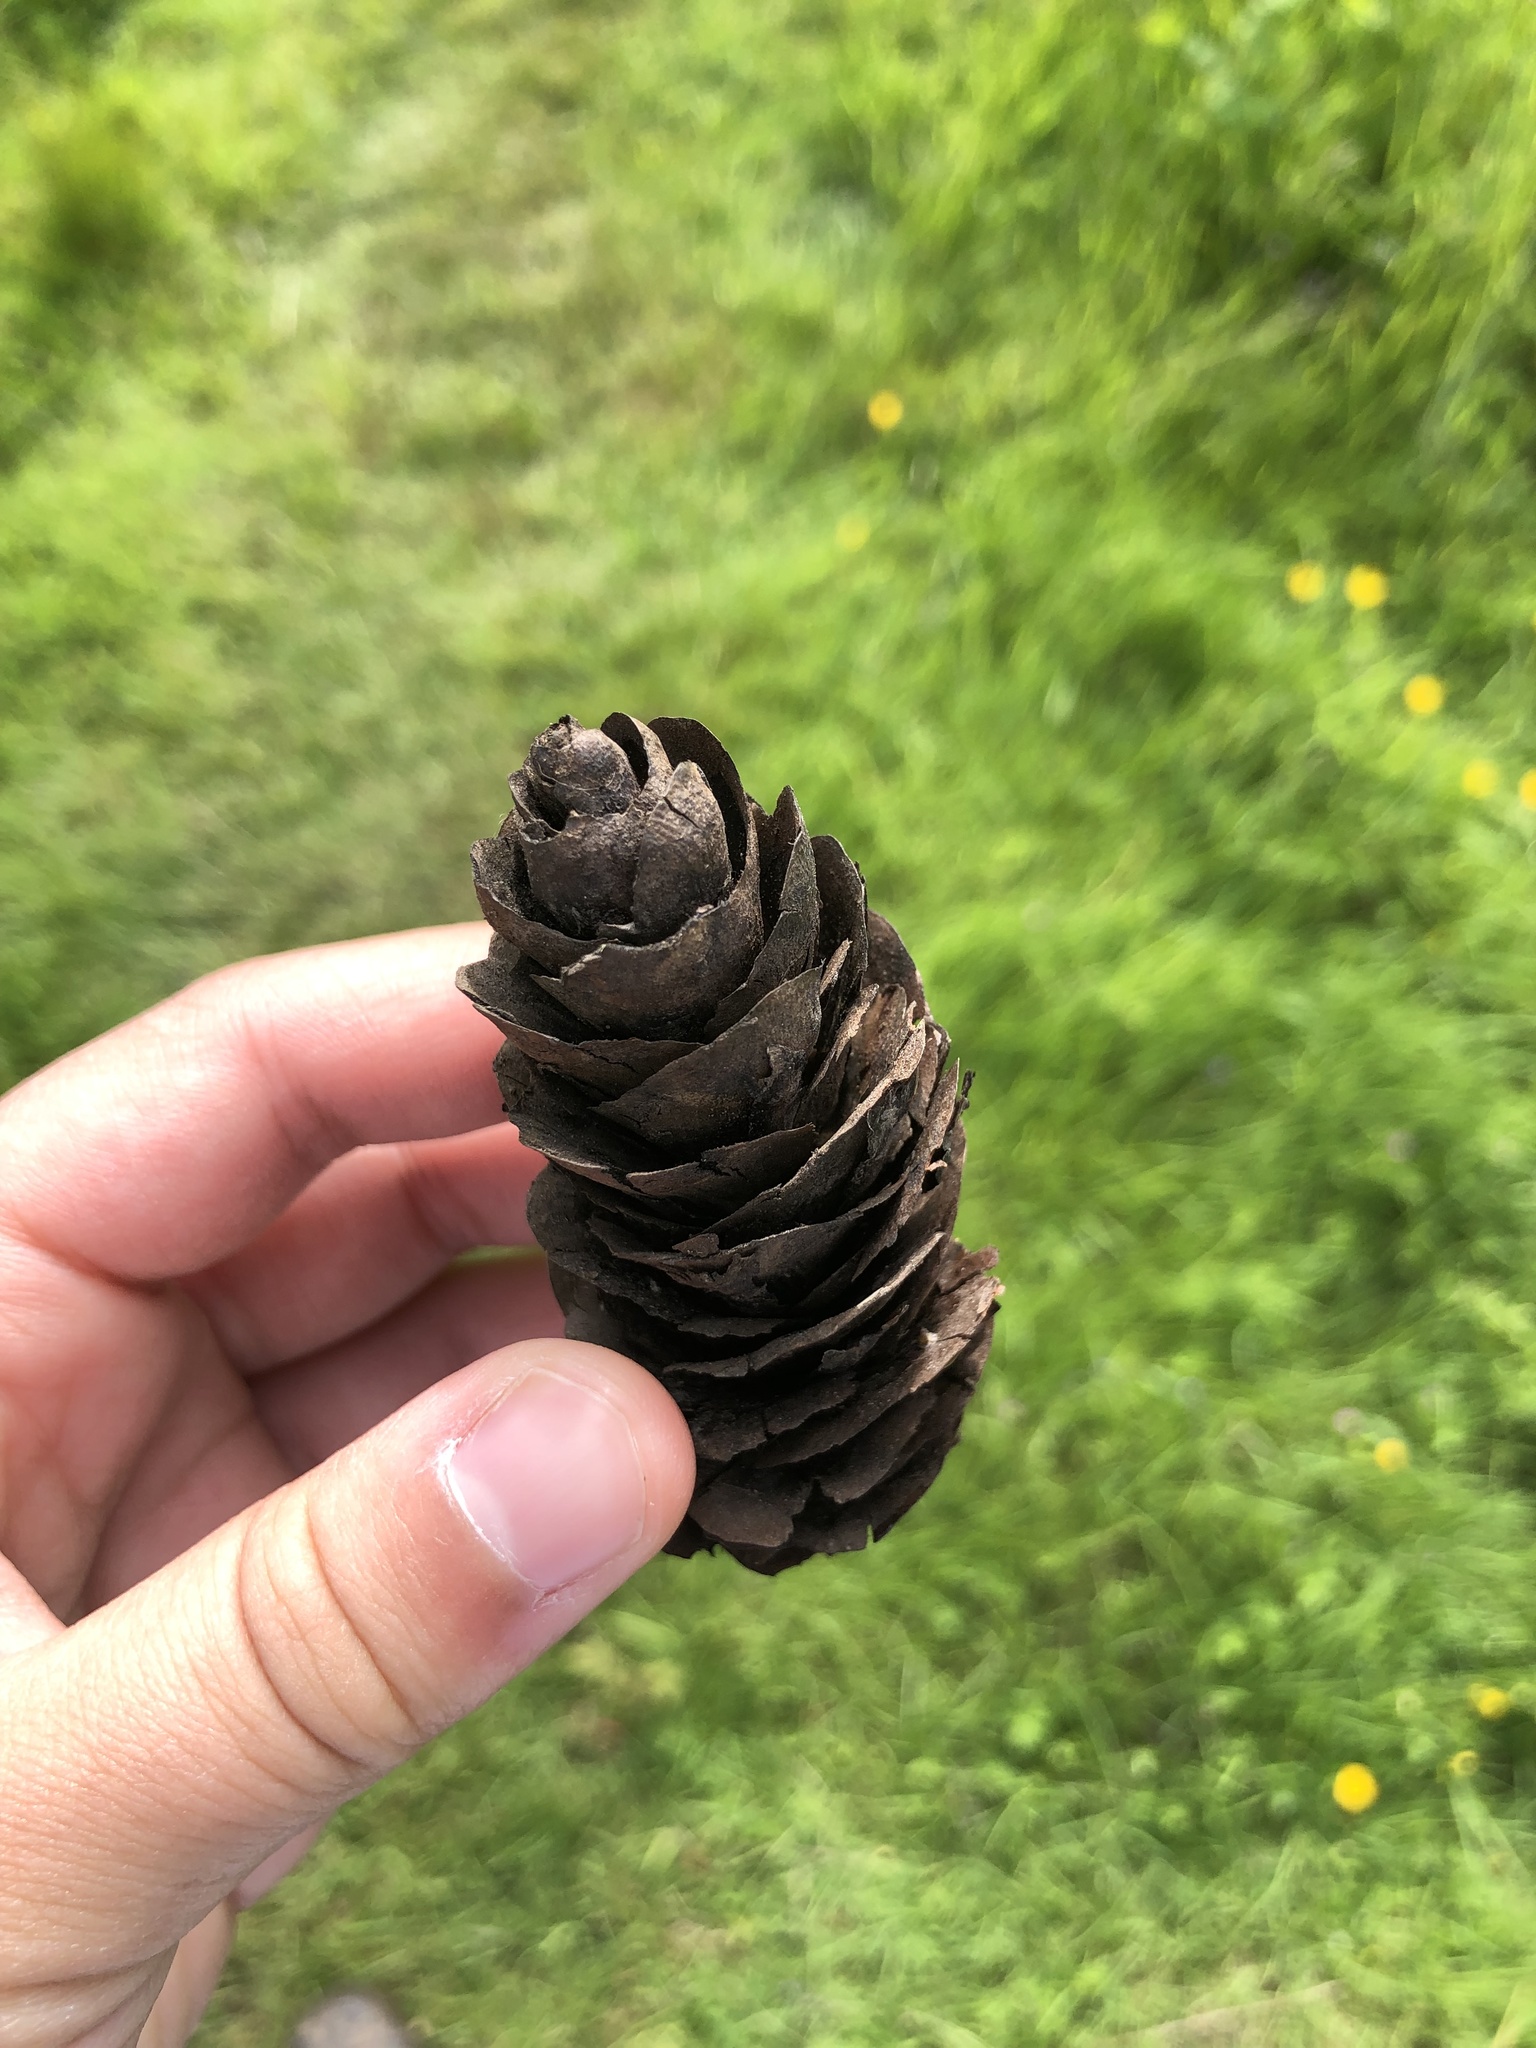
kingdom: Plantae
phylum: Tracheophyta
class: Pinopsida
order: Pinales
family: Pinaceae
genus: Pseudotsuga
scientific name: Pseudotsuga menziesii
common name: Douglas fir
